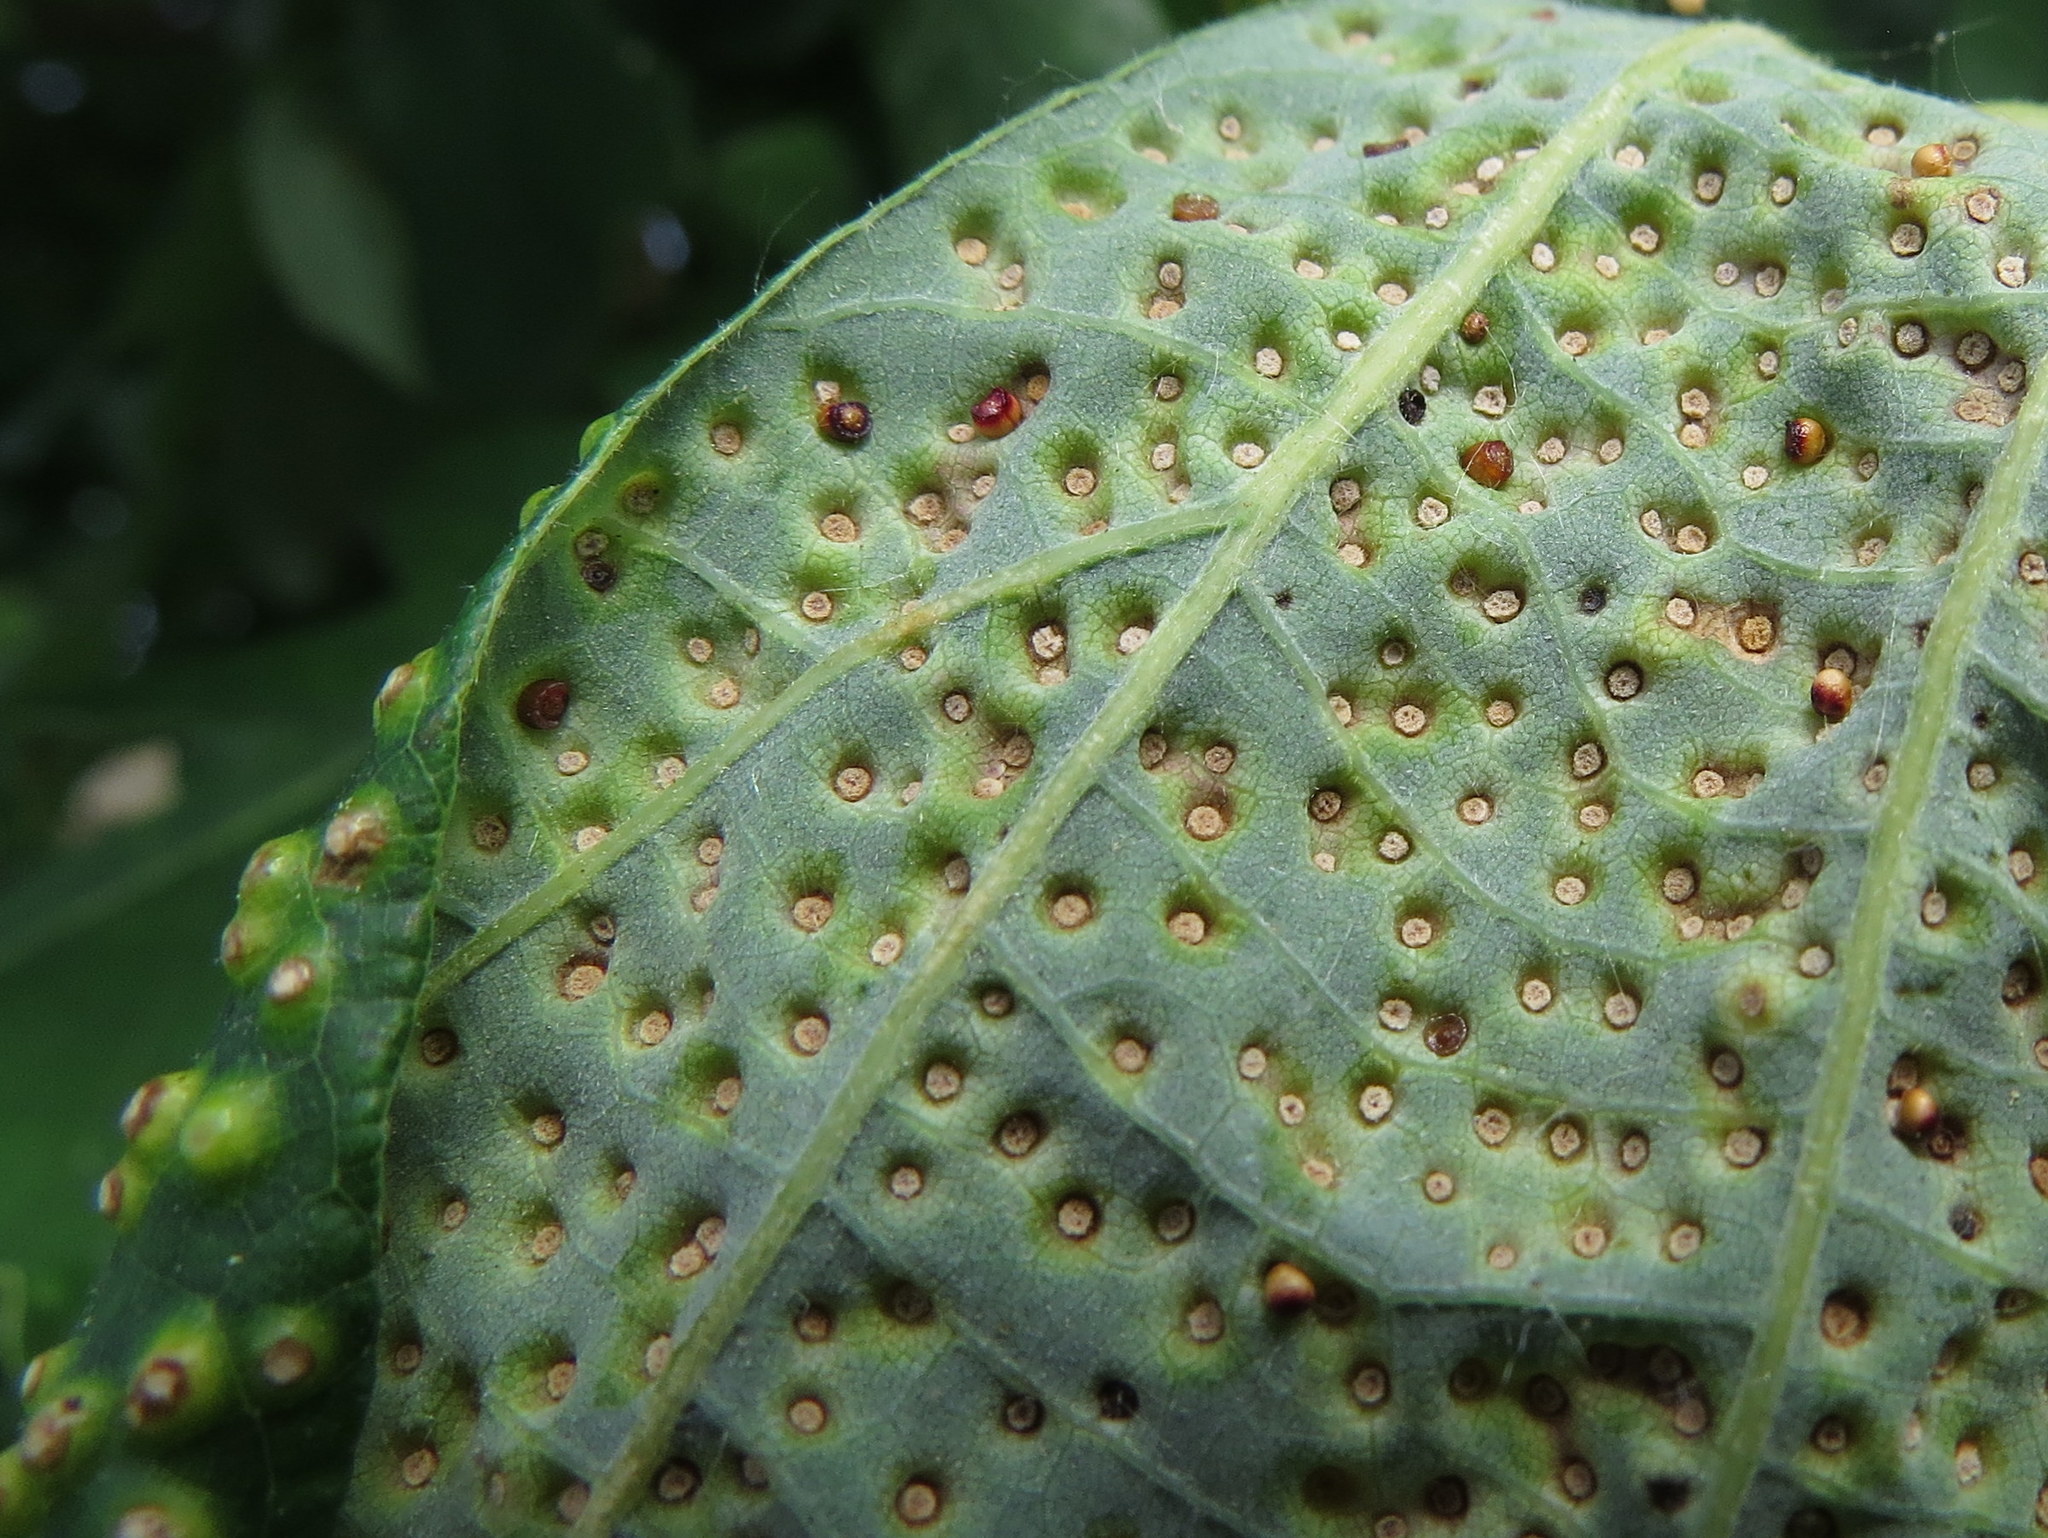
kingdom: Animalia
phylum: Arthropoda
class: Insecta
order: Hymenoptera
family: Cynipidae
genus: Neuroterus
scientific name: Neuroterus saltarius
